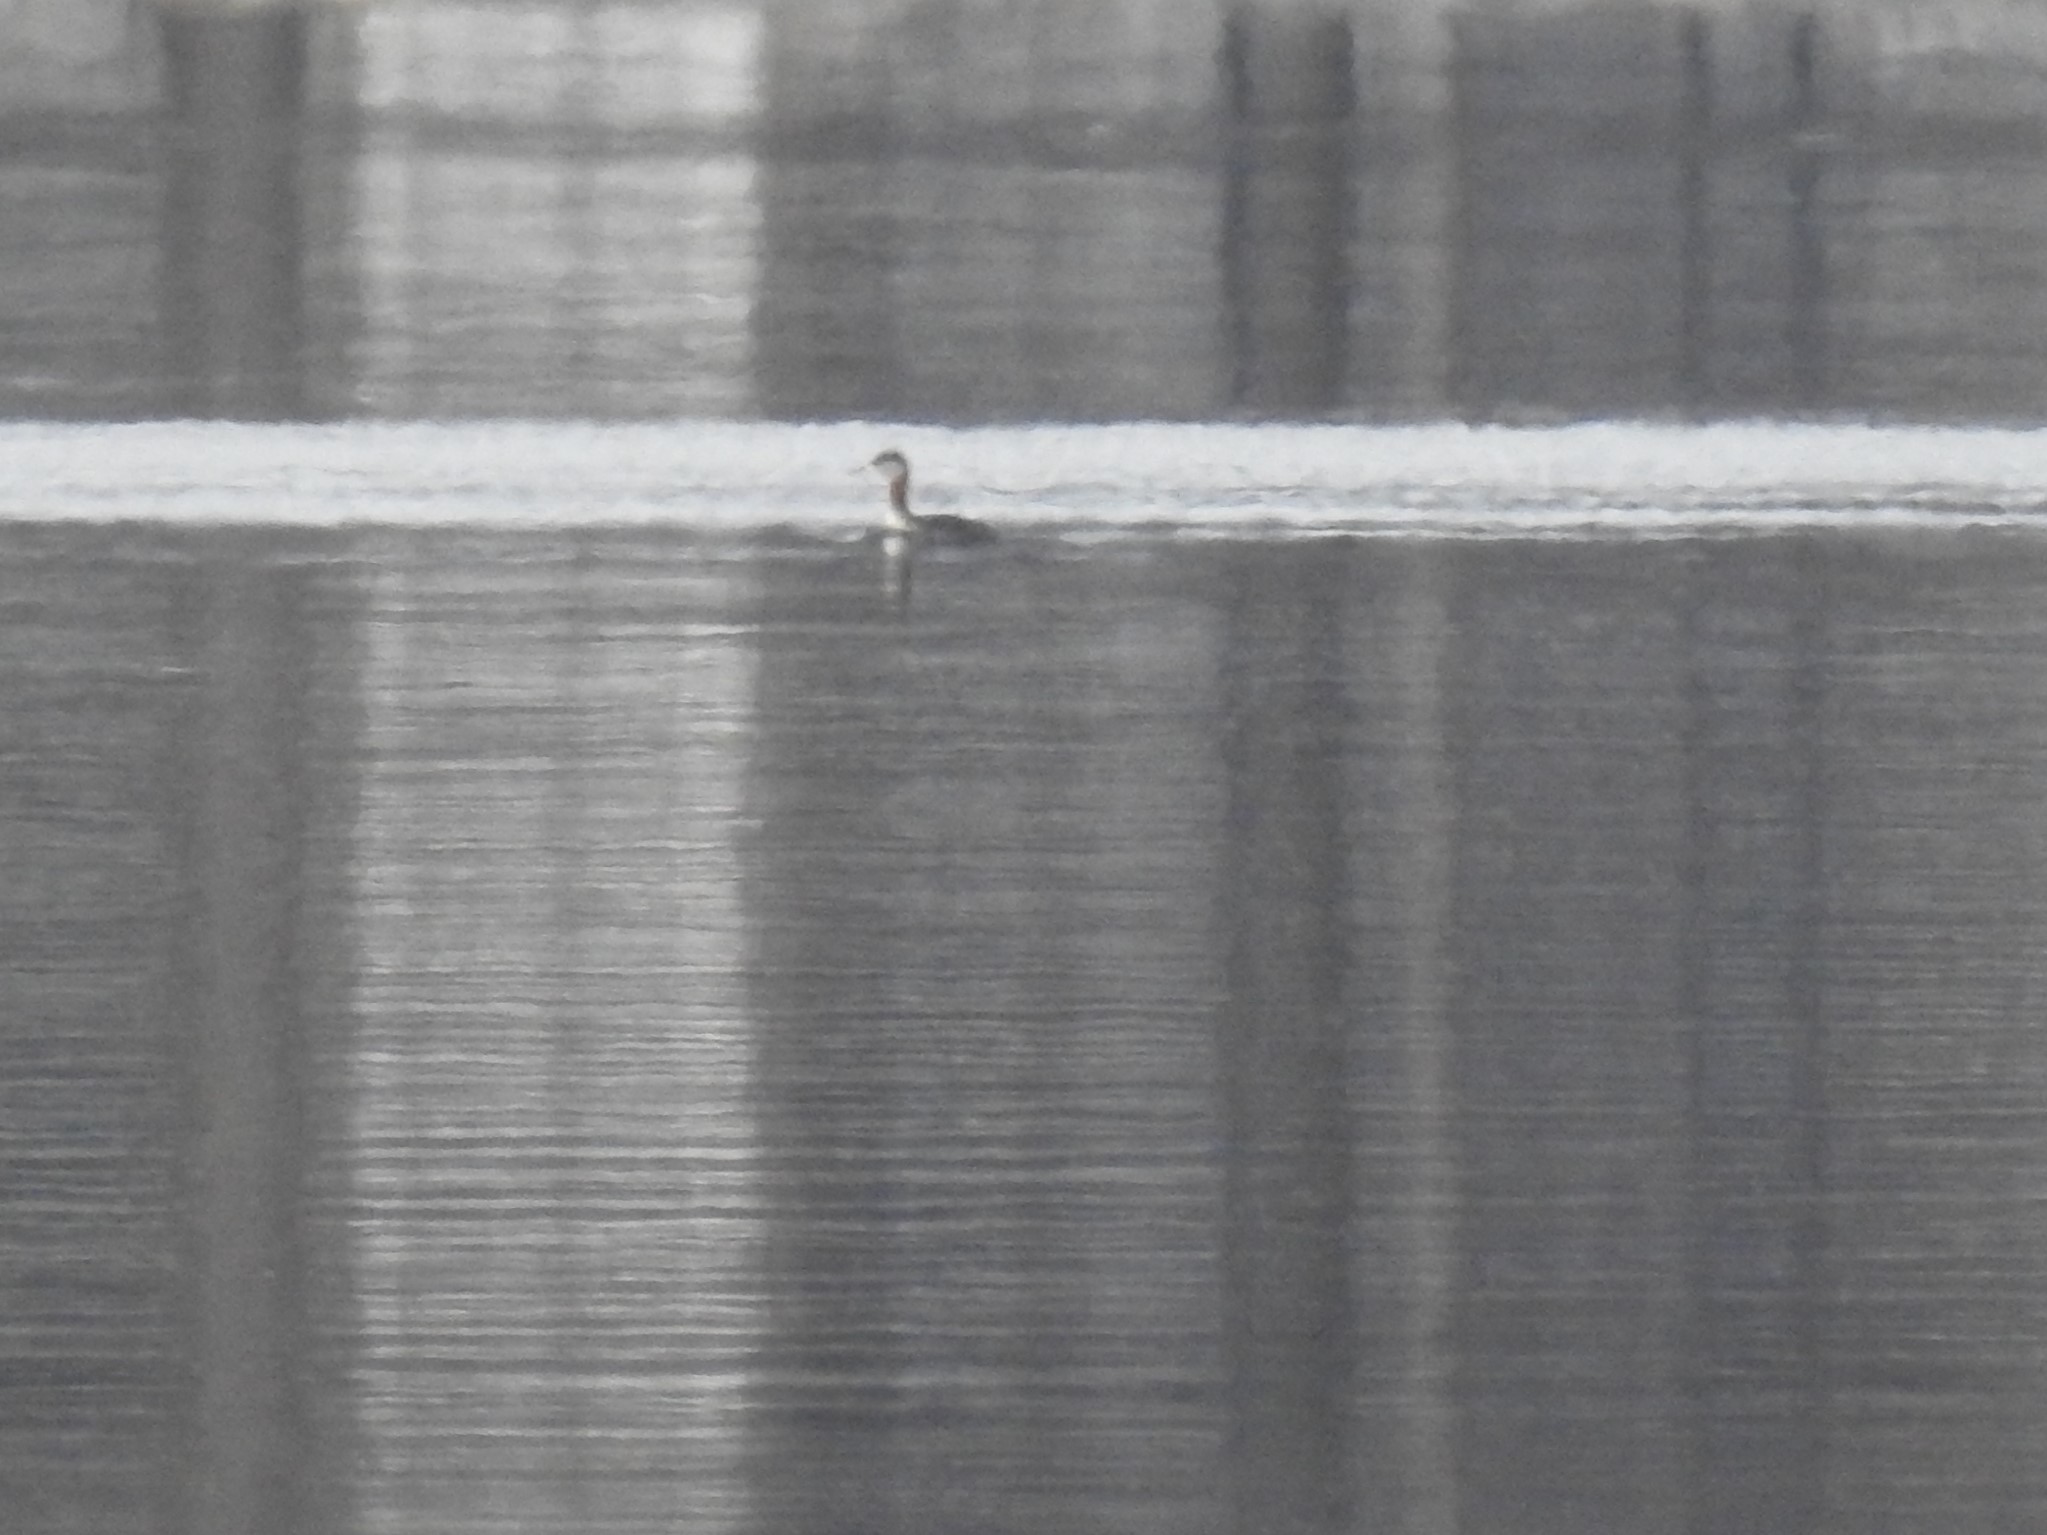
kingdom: Animalia
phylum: Chordata
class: Aves
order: Podicipediformes
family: Podicipedidae
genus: Podiceps
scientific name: Podiceps grisegena
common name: Red-necked grebe
